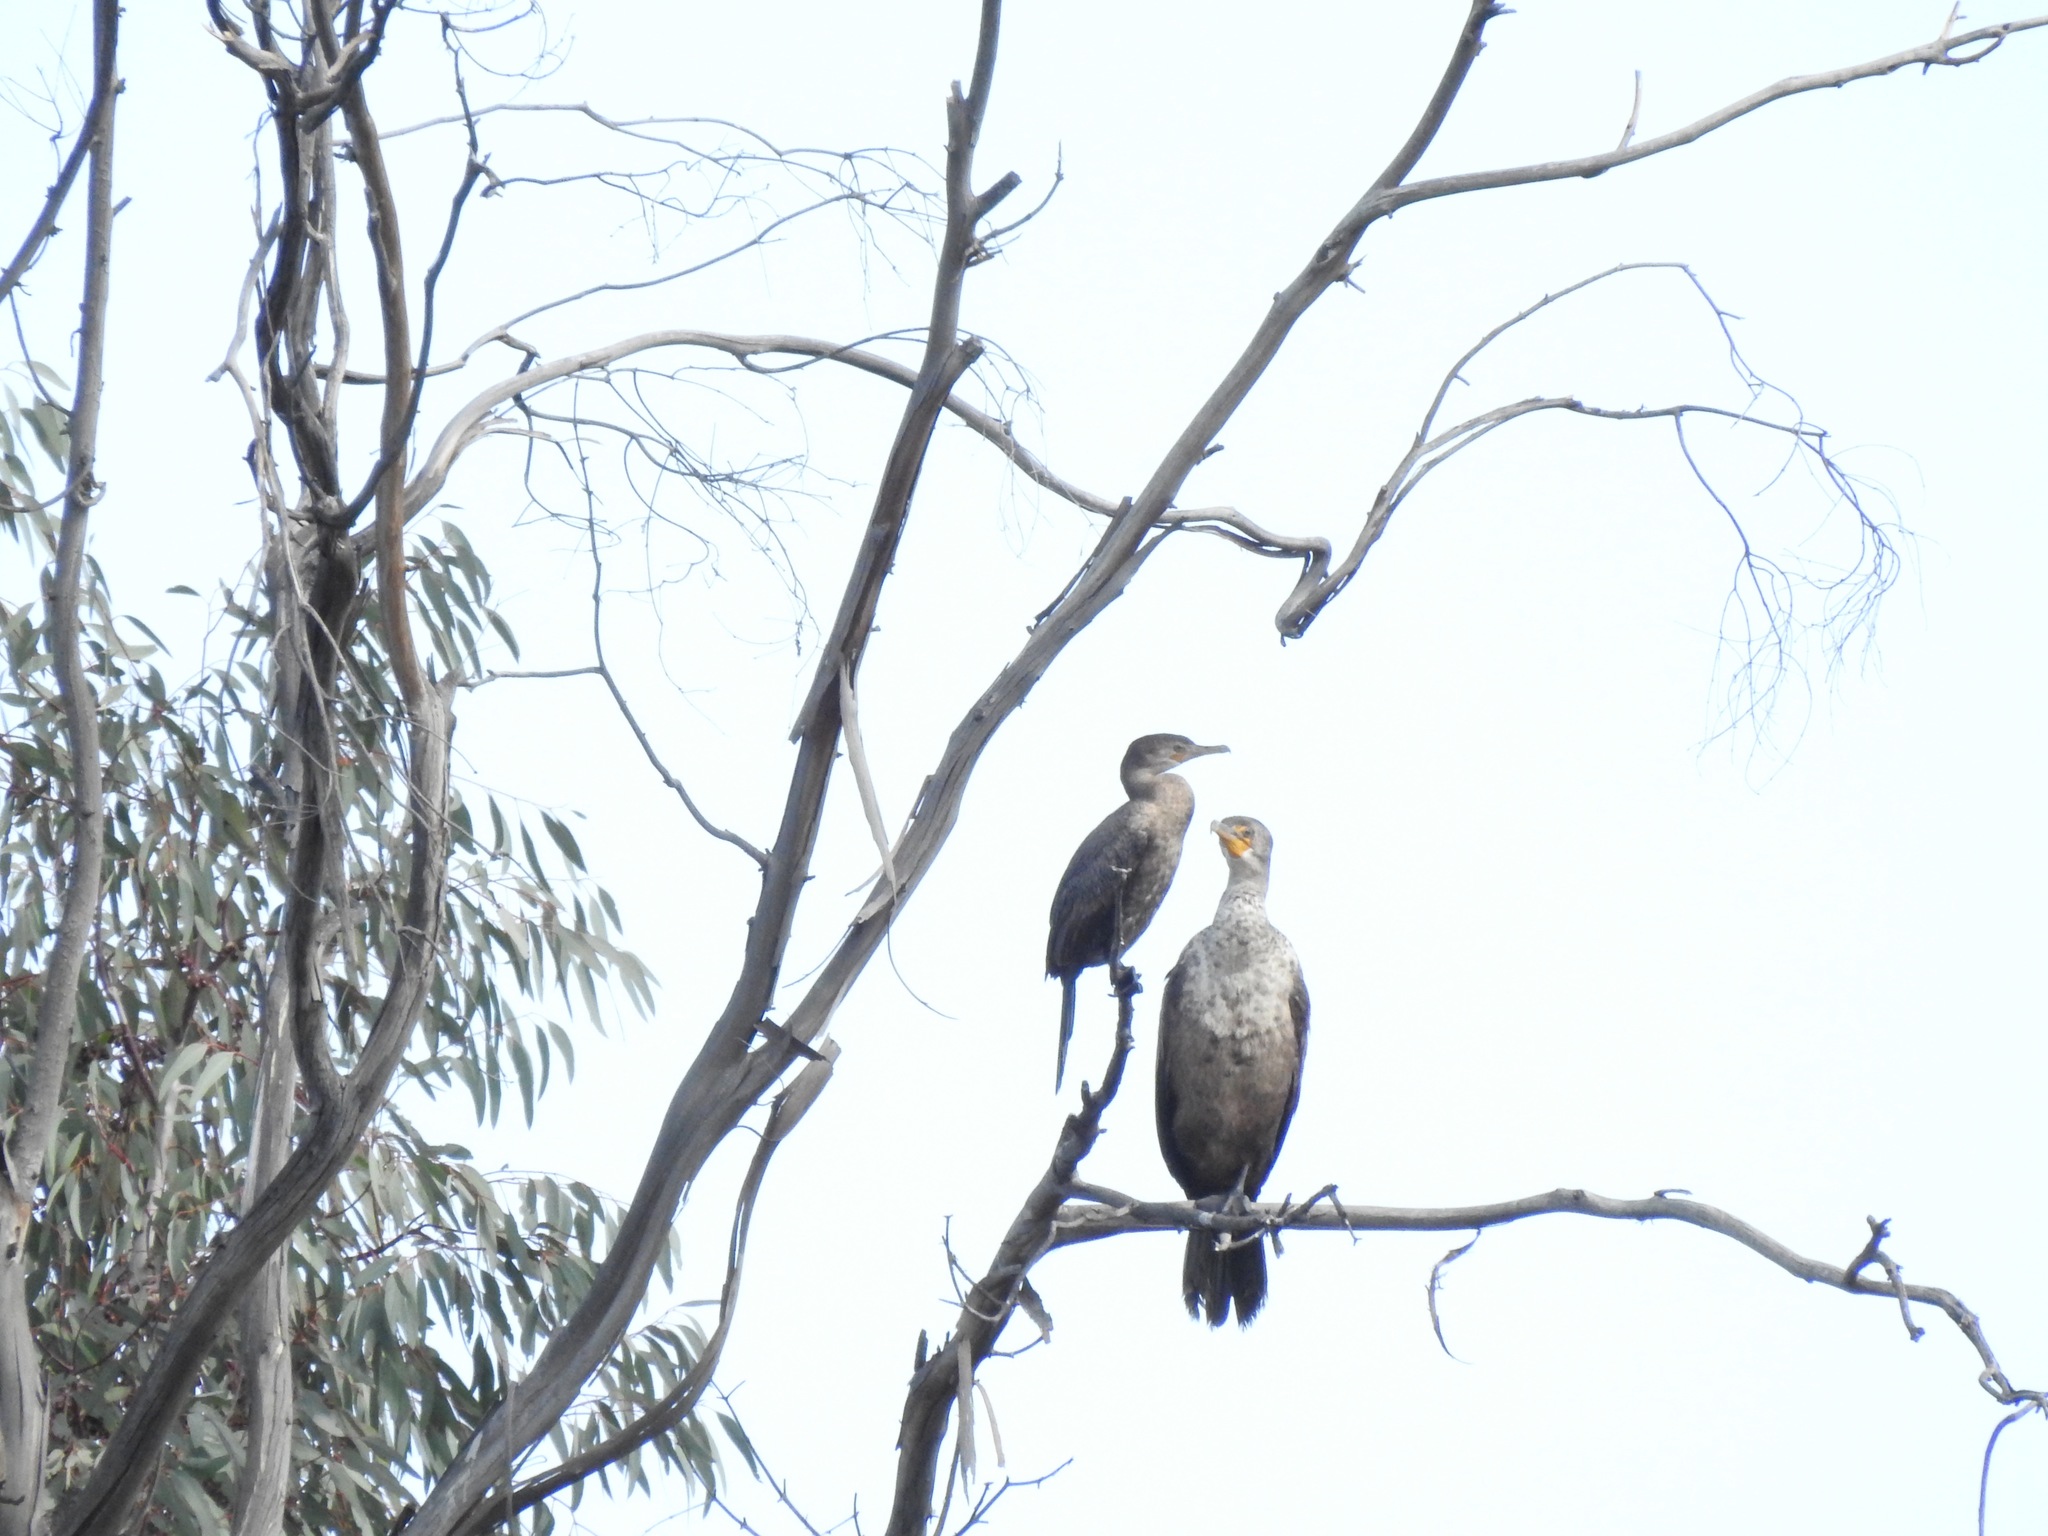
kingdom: Animalia
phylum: Chordata
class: Aves
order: Suliformes
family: Phalacrocoracidae
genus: Phalacrocorax
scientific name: Phalacrocorax brasilianus
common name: Neotropic cormorant
